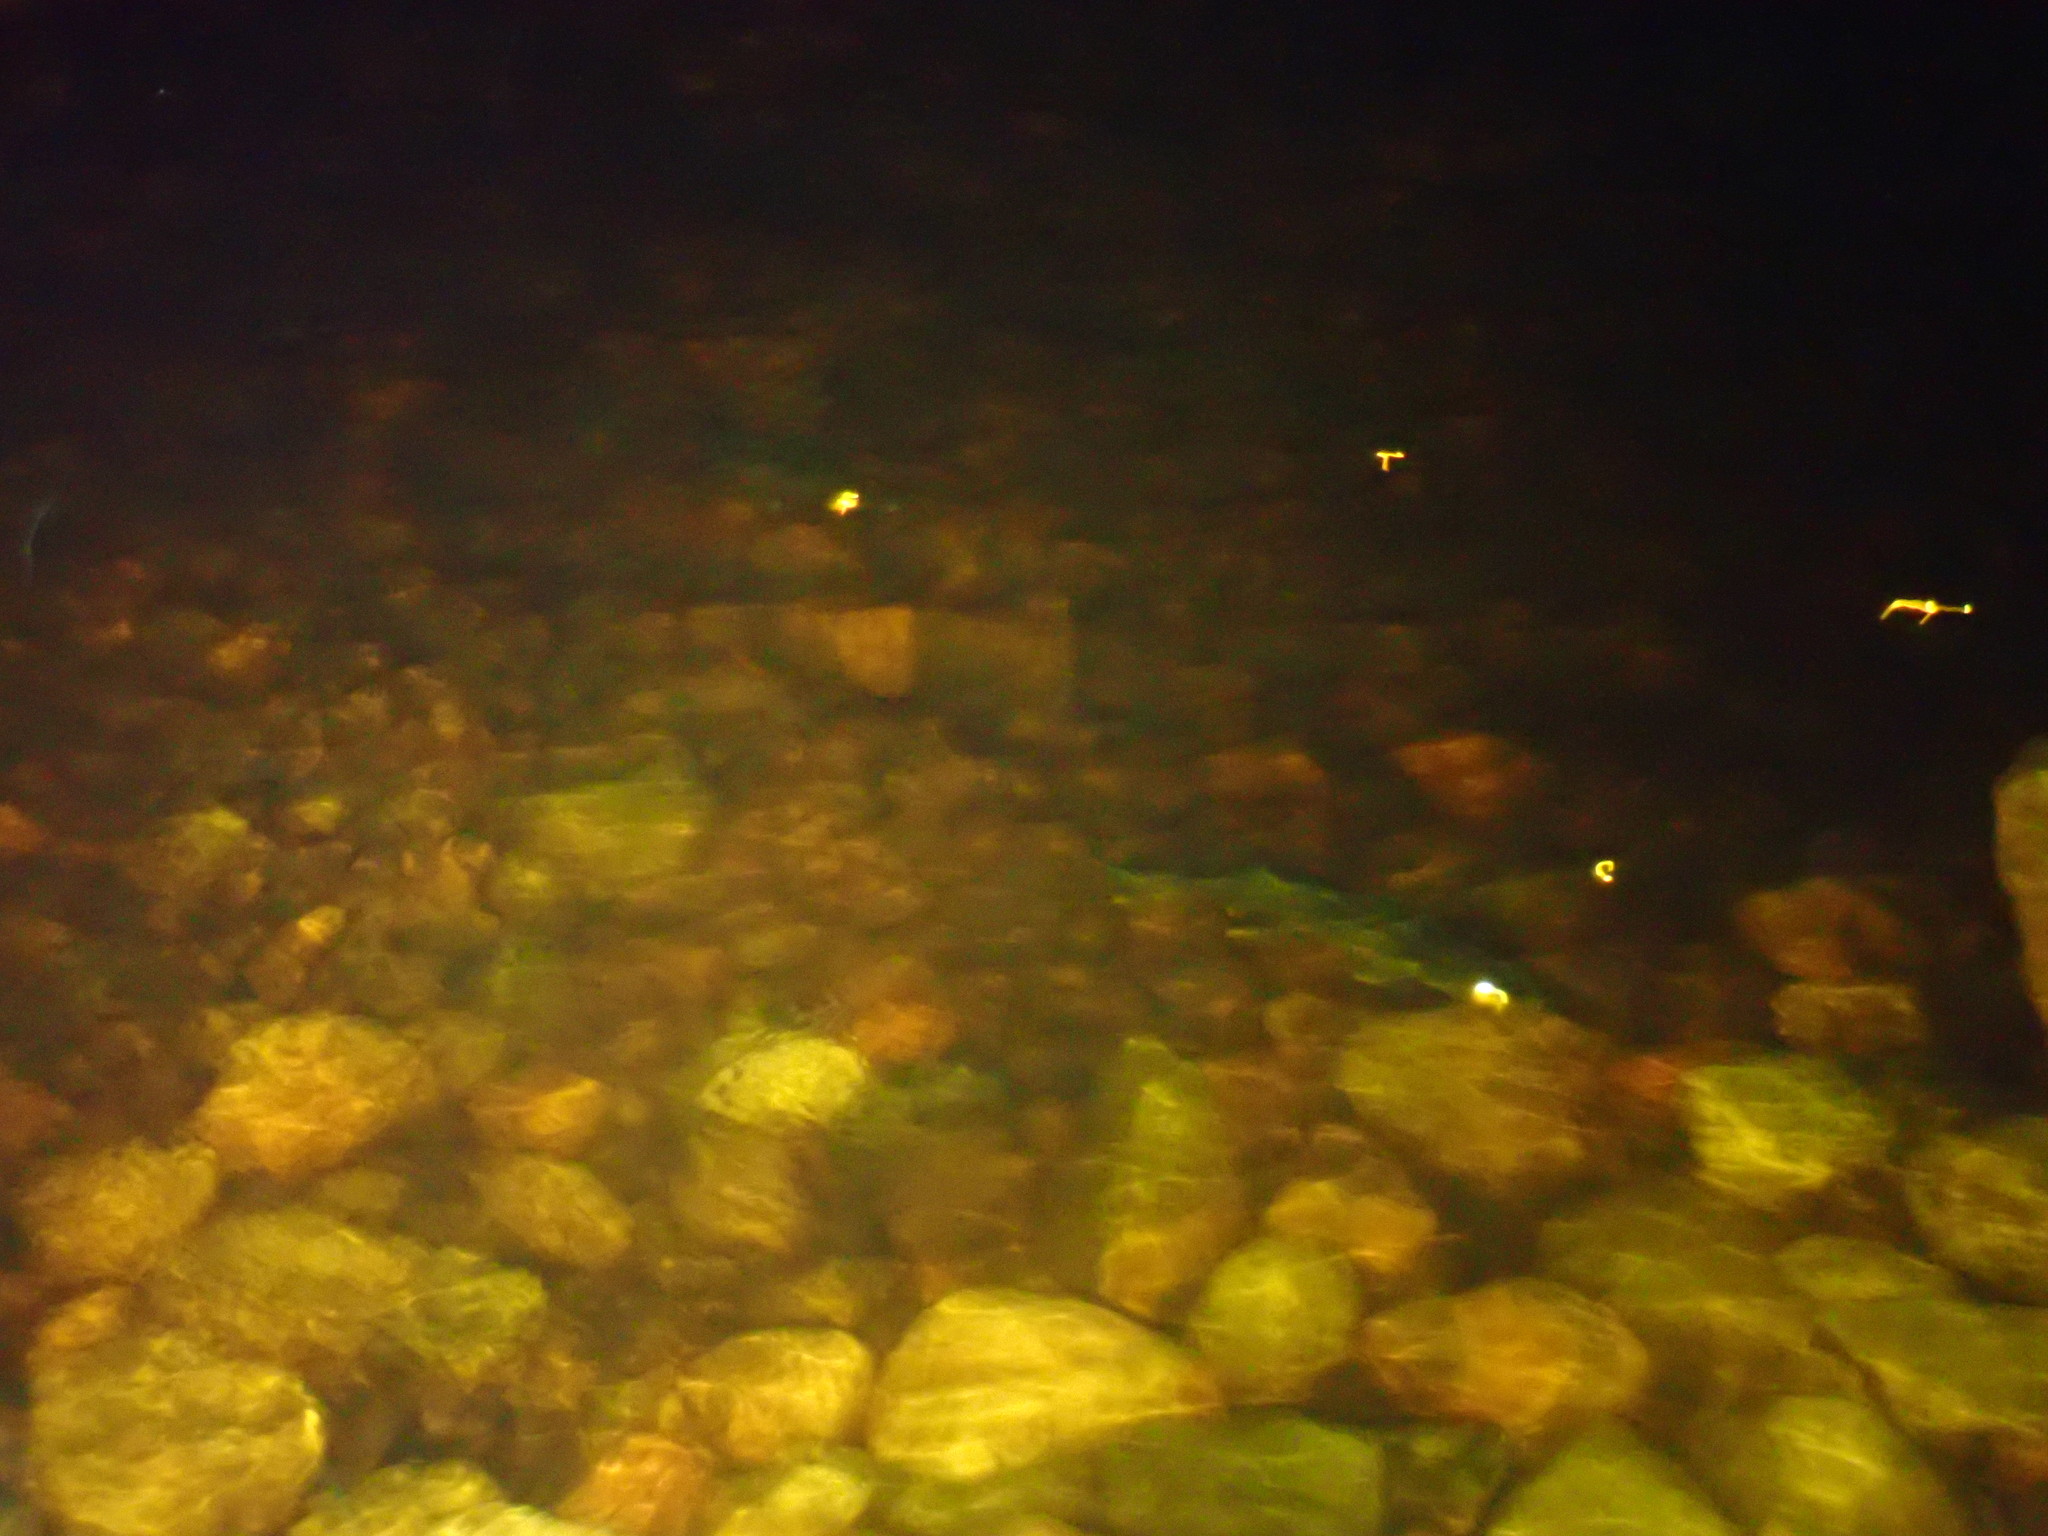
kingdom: Animalia
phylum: Chordata
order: Perciformes
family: Percidae
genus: Sander
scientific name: Sander vitreus
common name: Walleye
